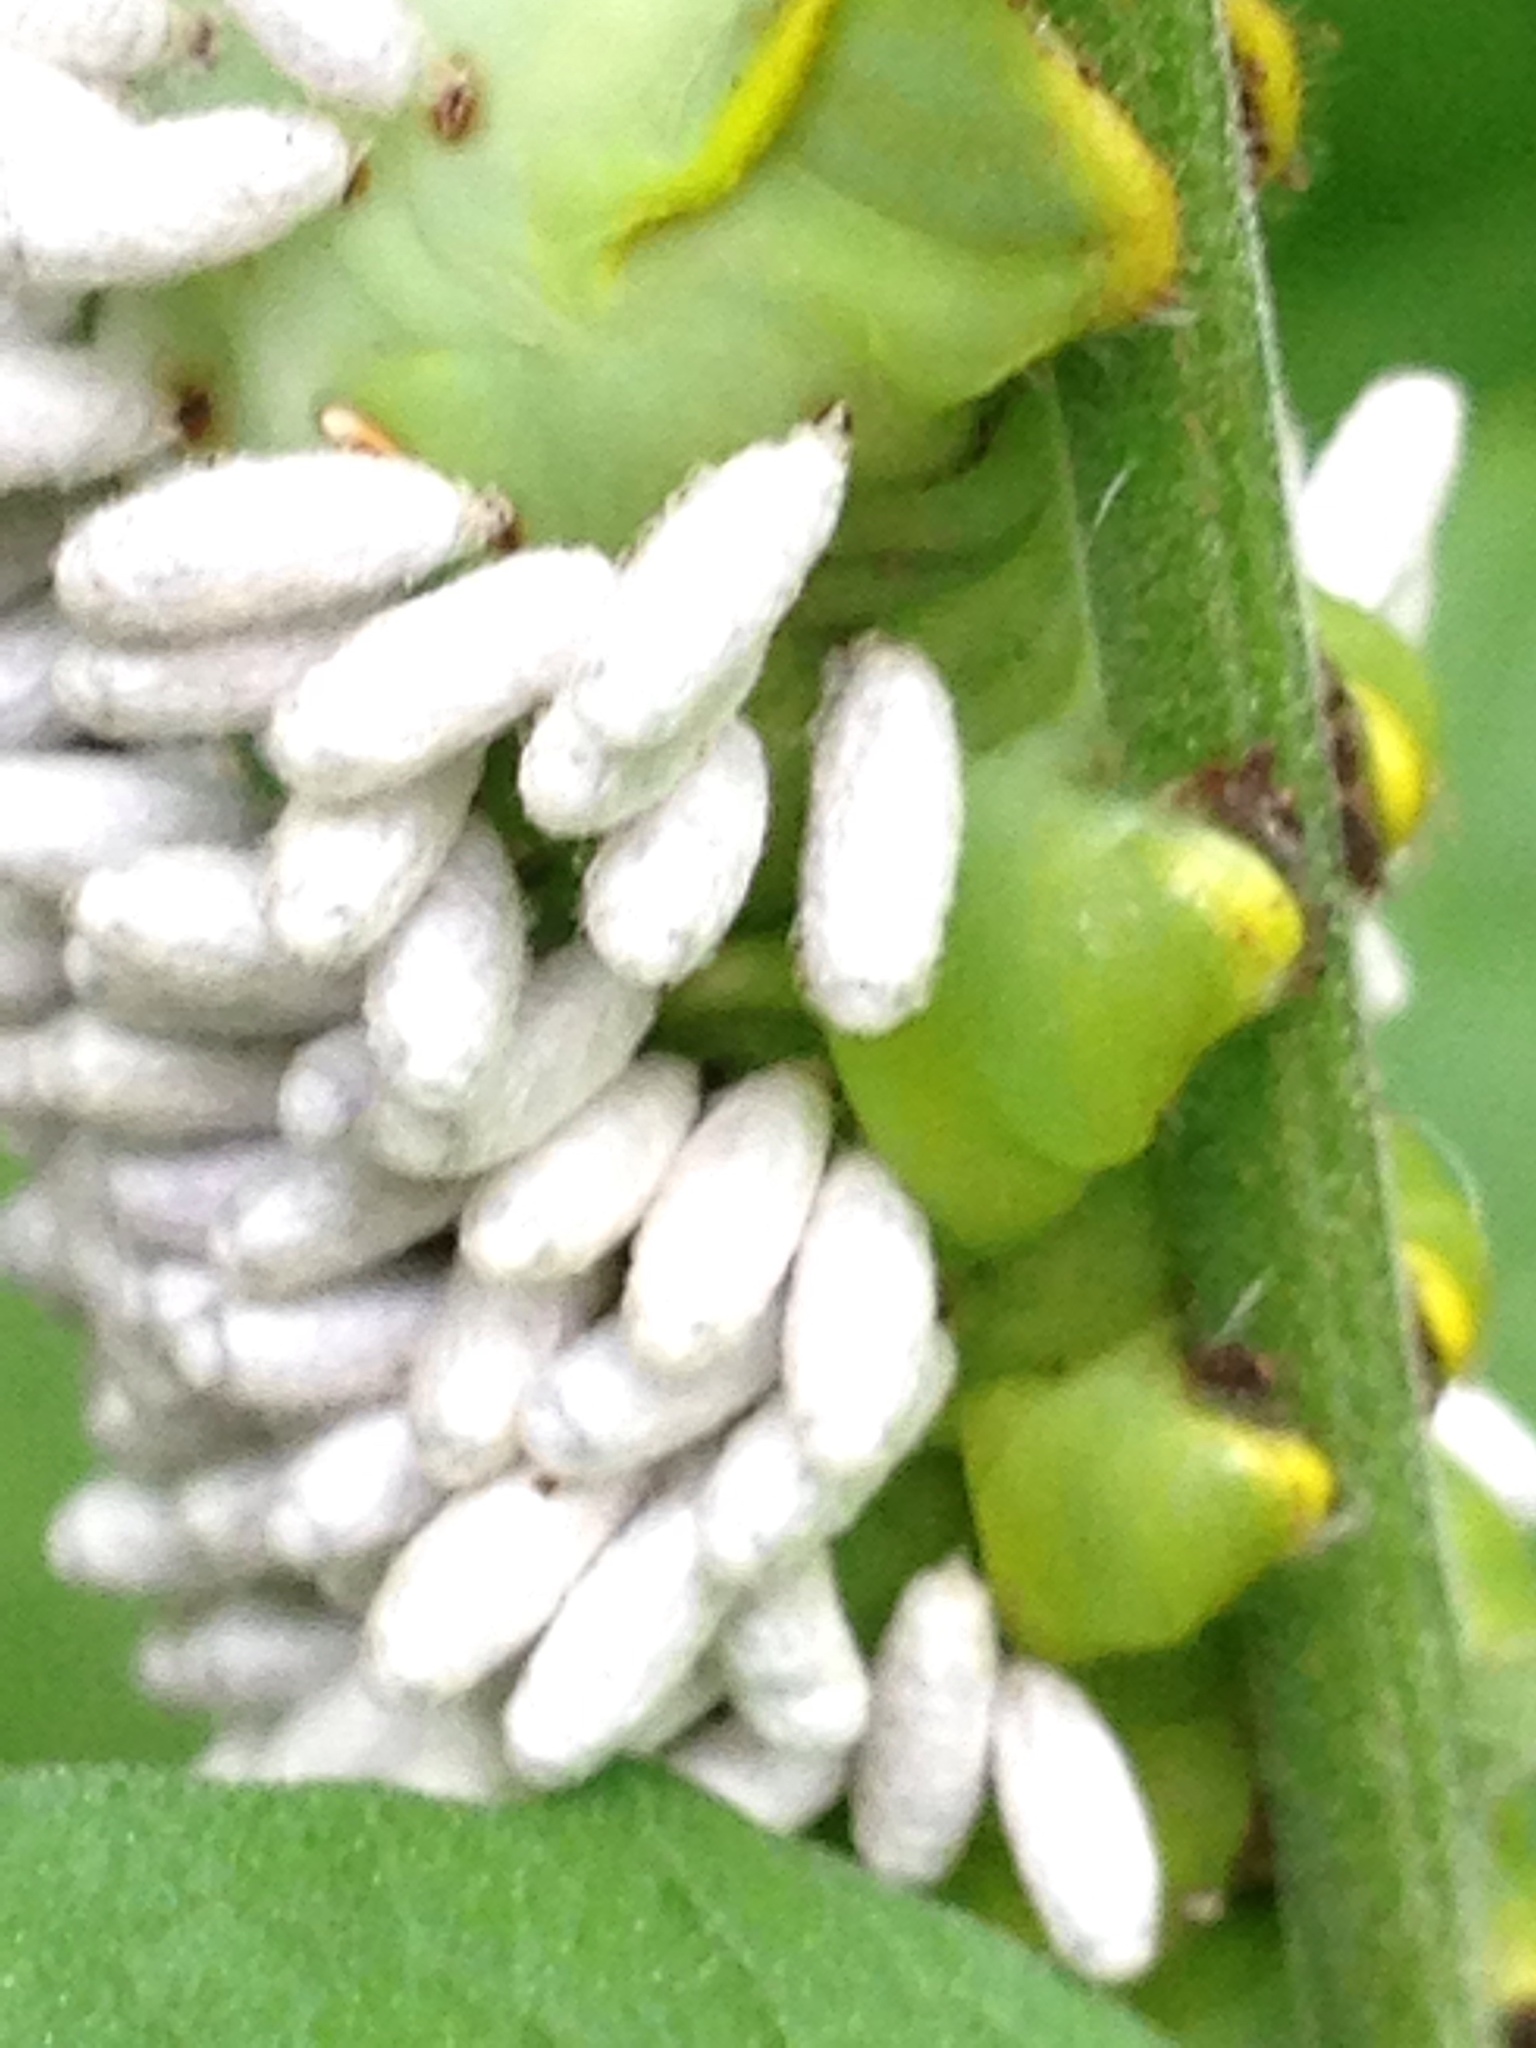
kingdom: Animalia
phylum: Arthropoda
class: Insecta
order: Hymenoptera
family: Braconidae
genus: Cotesia
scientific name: Cotesia congregata
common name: Hornworm parasitoid wasp
